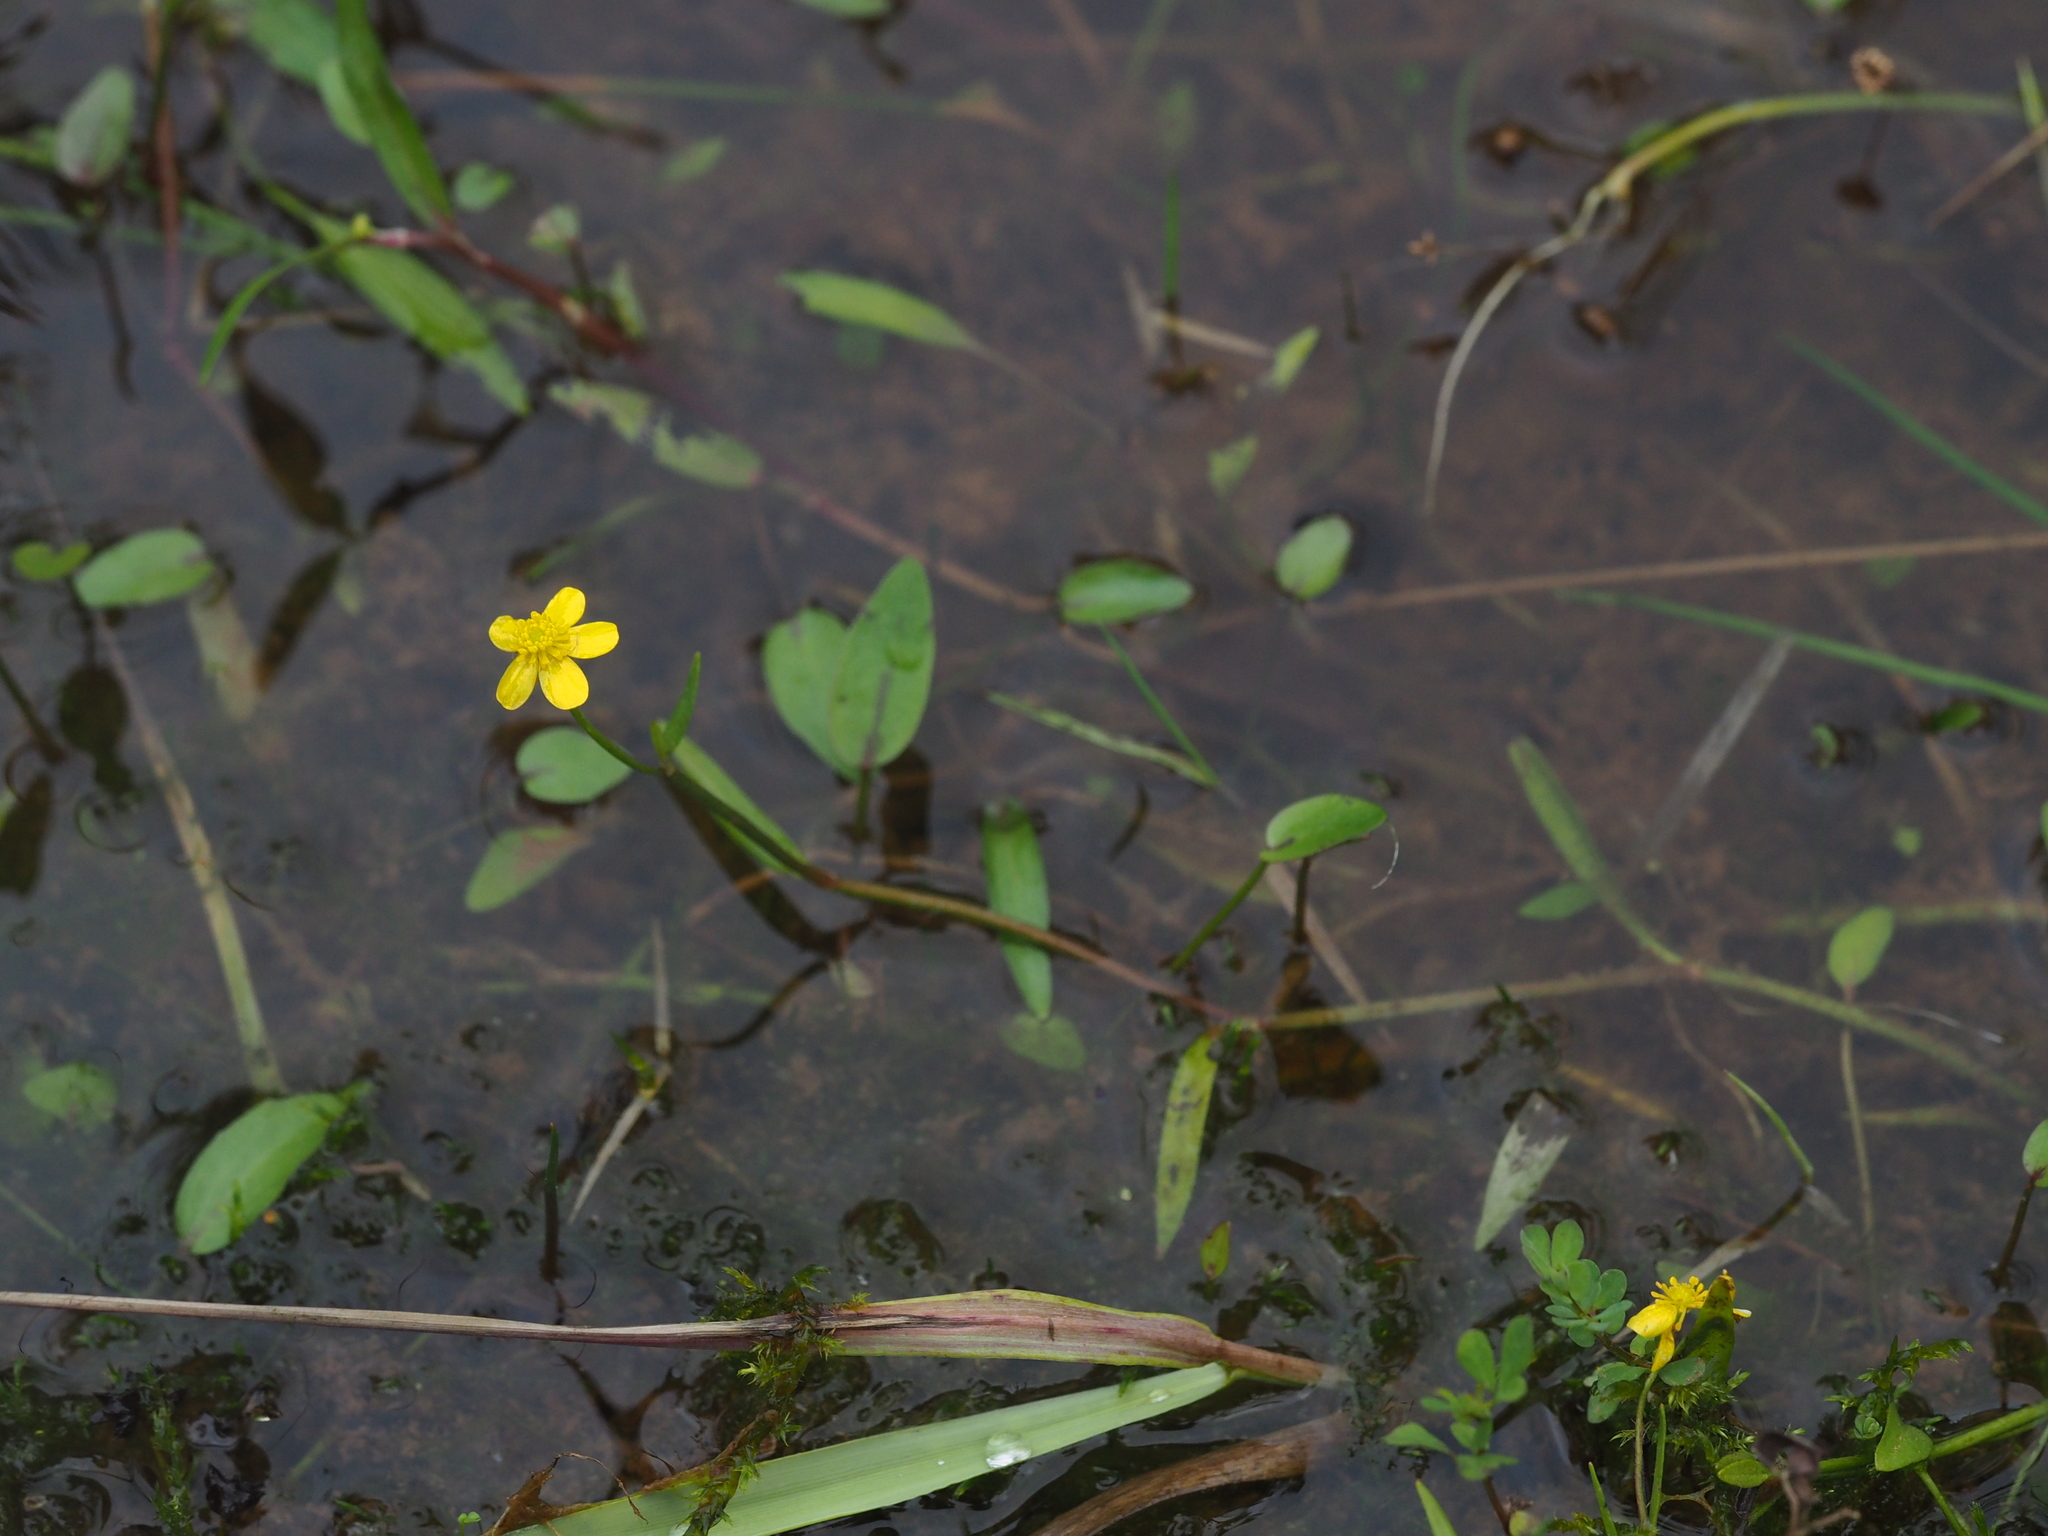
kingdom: Plantae
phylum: Tracheophyta
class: Magnoliopsida
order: Ranunculales
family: Ranunculaceae
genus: Ranunculus
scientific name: Ranunculus flammula
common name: Lesser spearwort
